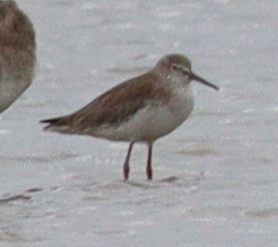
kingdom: Animalia
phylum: Chordata
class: Aves
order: Charadriiformes
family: Scolopacidae
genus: Tringa
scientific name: Tringa totanus
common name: Common redshank
